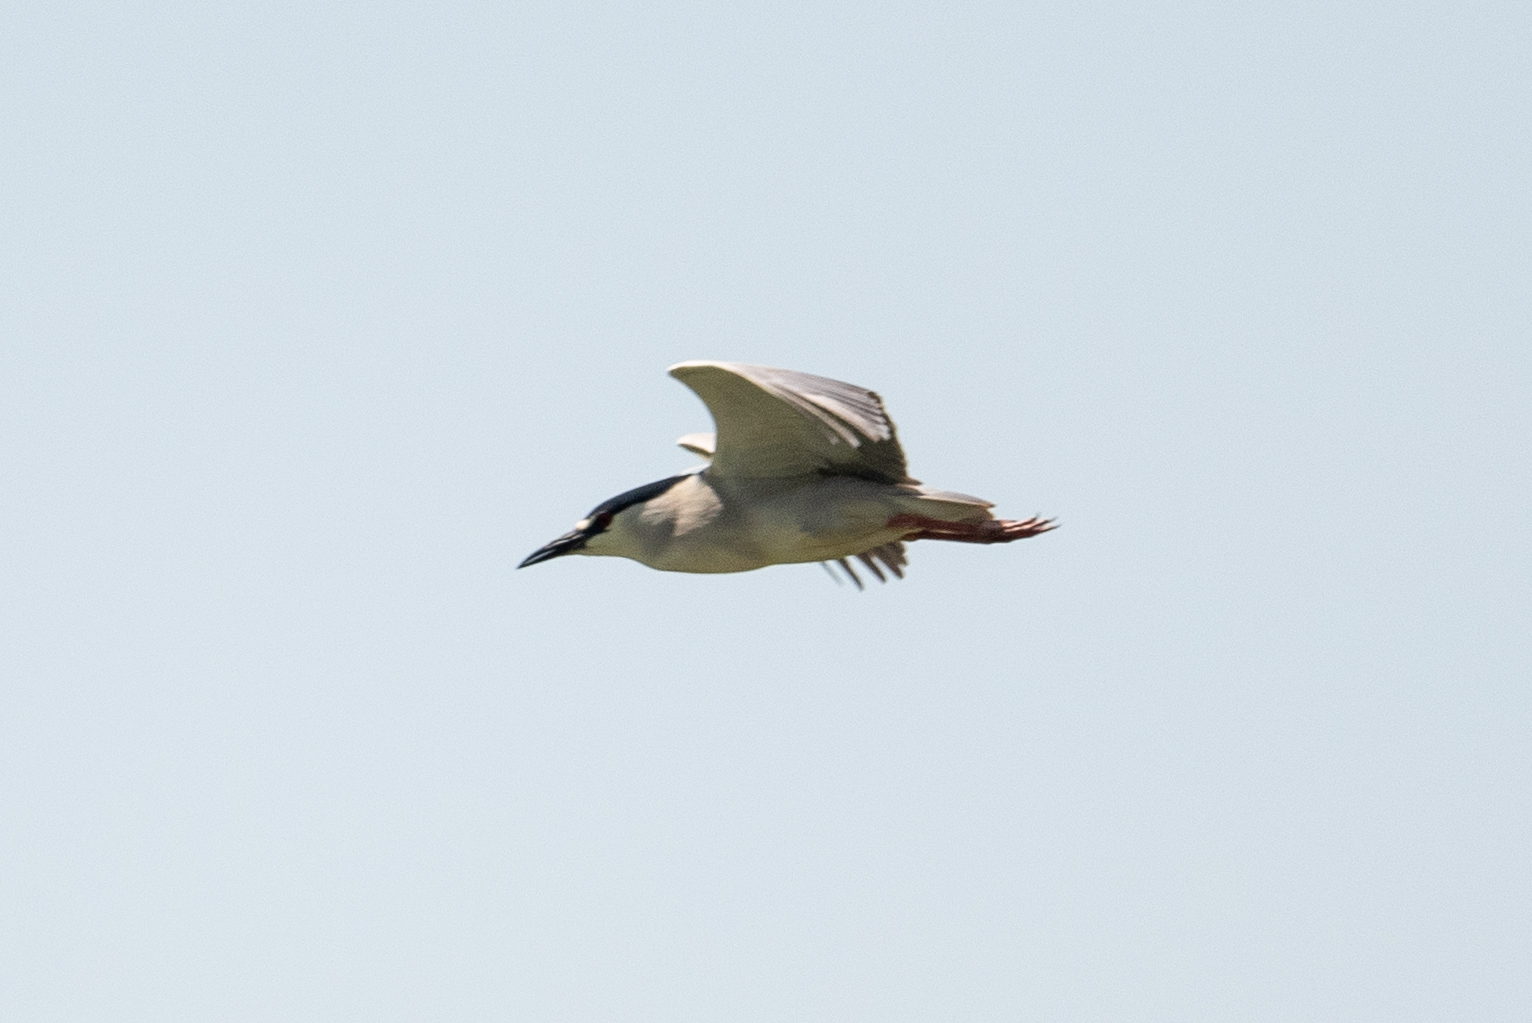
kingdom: Animalia
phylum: Chordata
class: Aves
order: Pelecaniformes
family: Ardeidae
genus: Nycticorax
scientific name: Nycticorax nycticorax
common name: Black-crowned night heron
